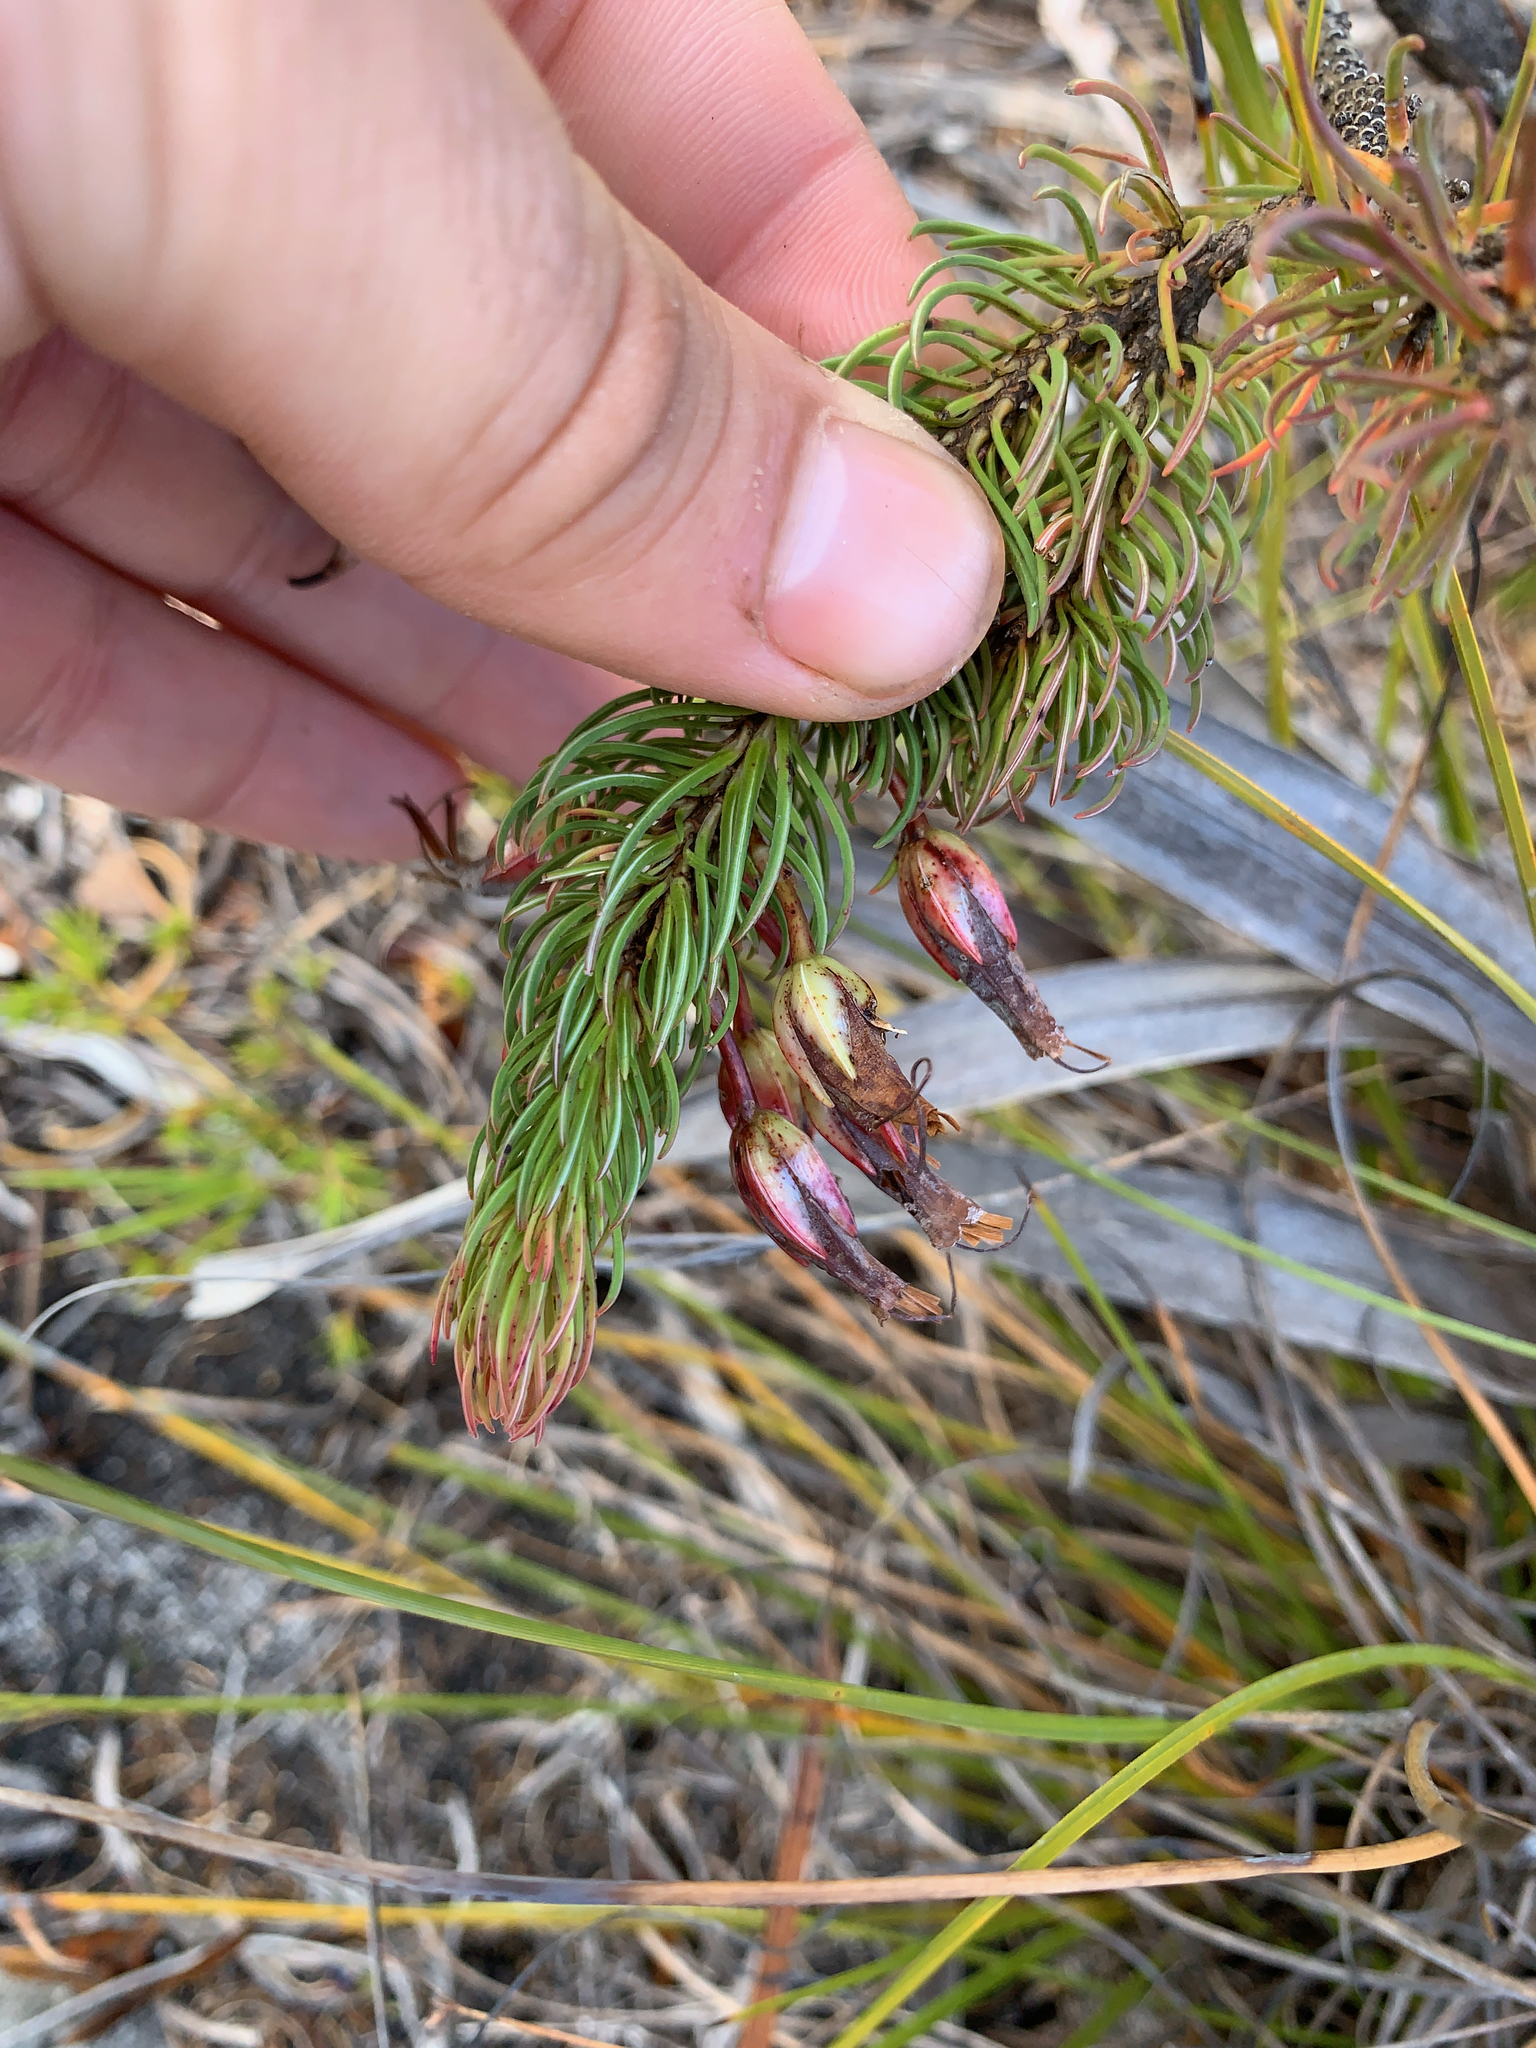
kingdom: Plantae
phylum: Tracheophyta
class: Magnoliopsida
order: Ericales
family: Ericaceae
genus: Erica
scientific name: Erica plukenetii
